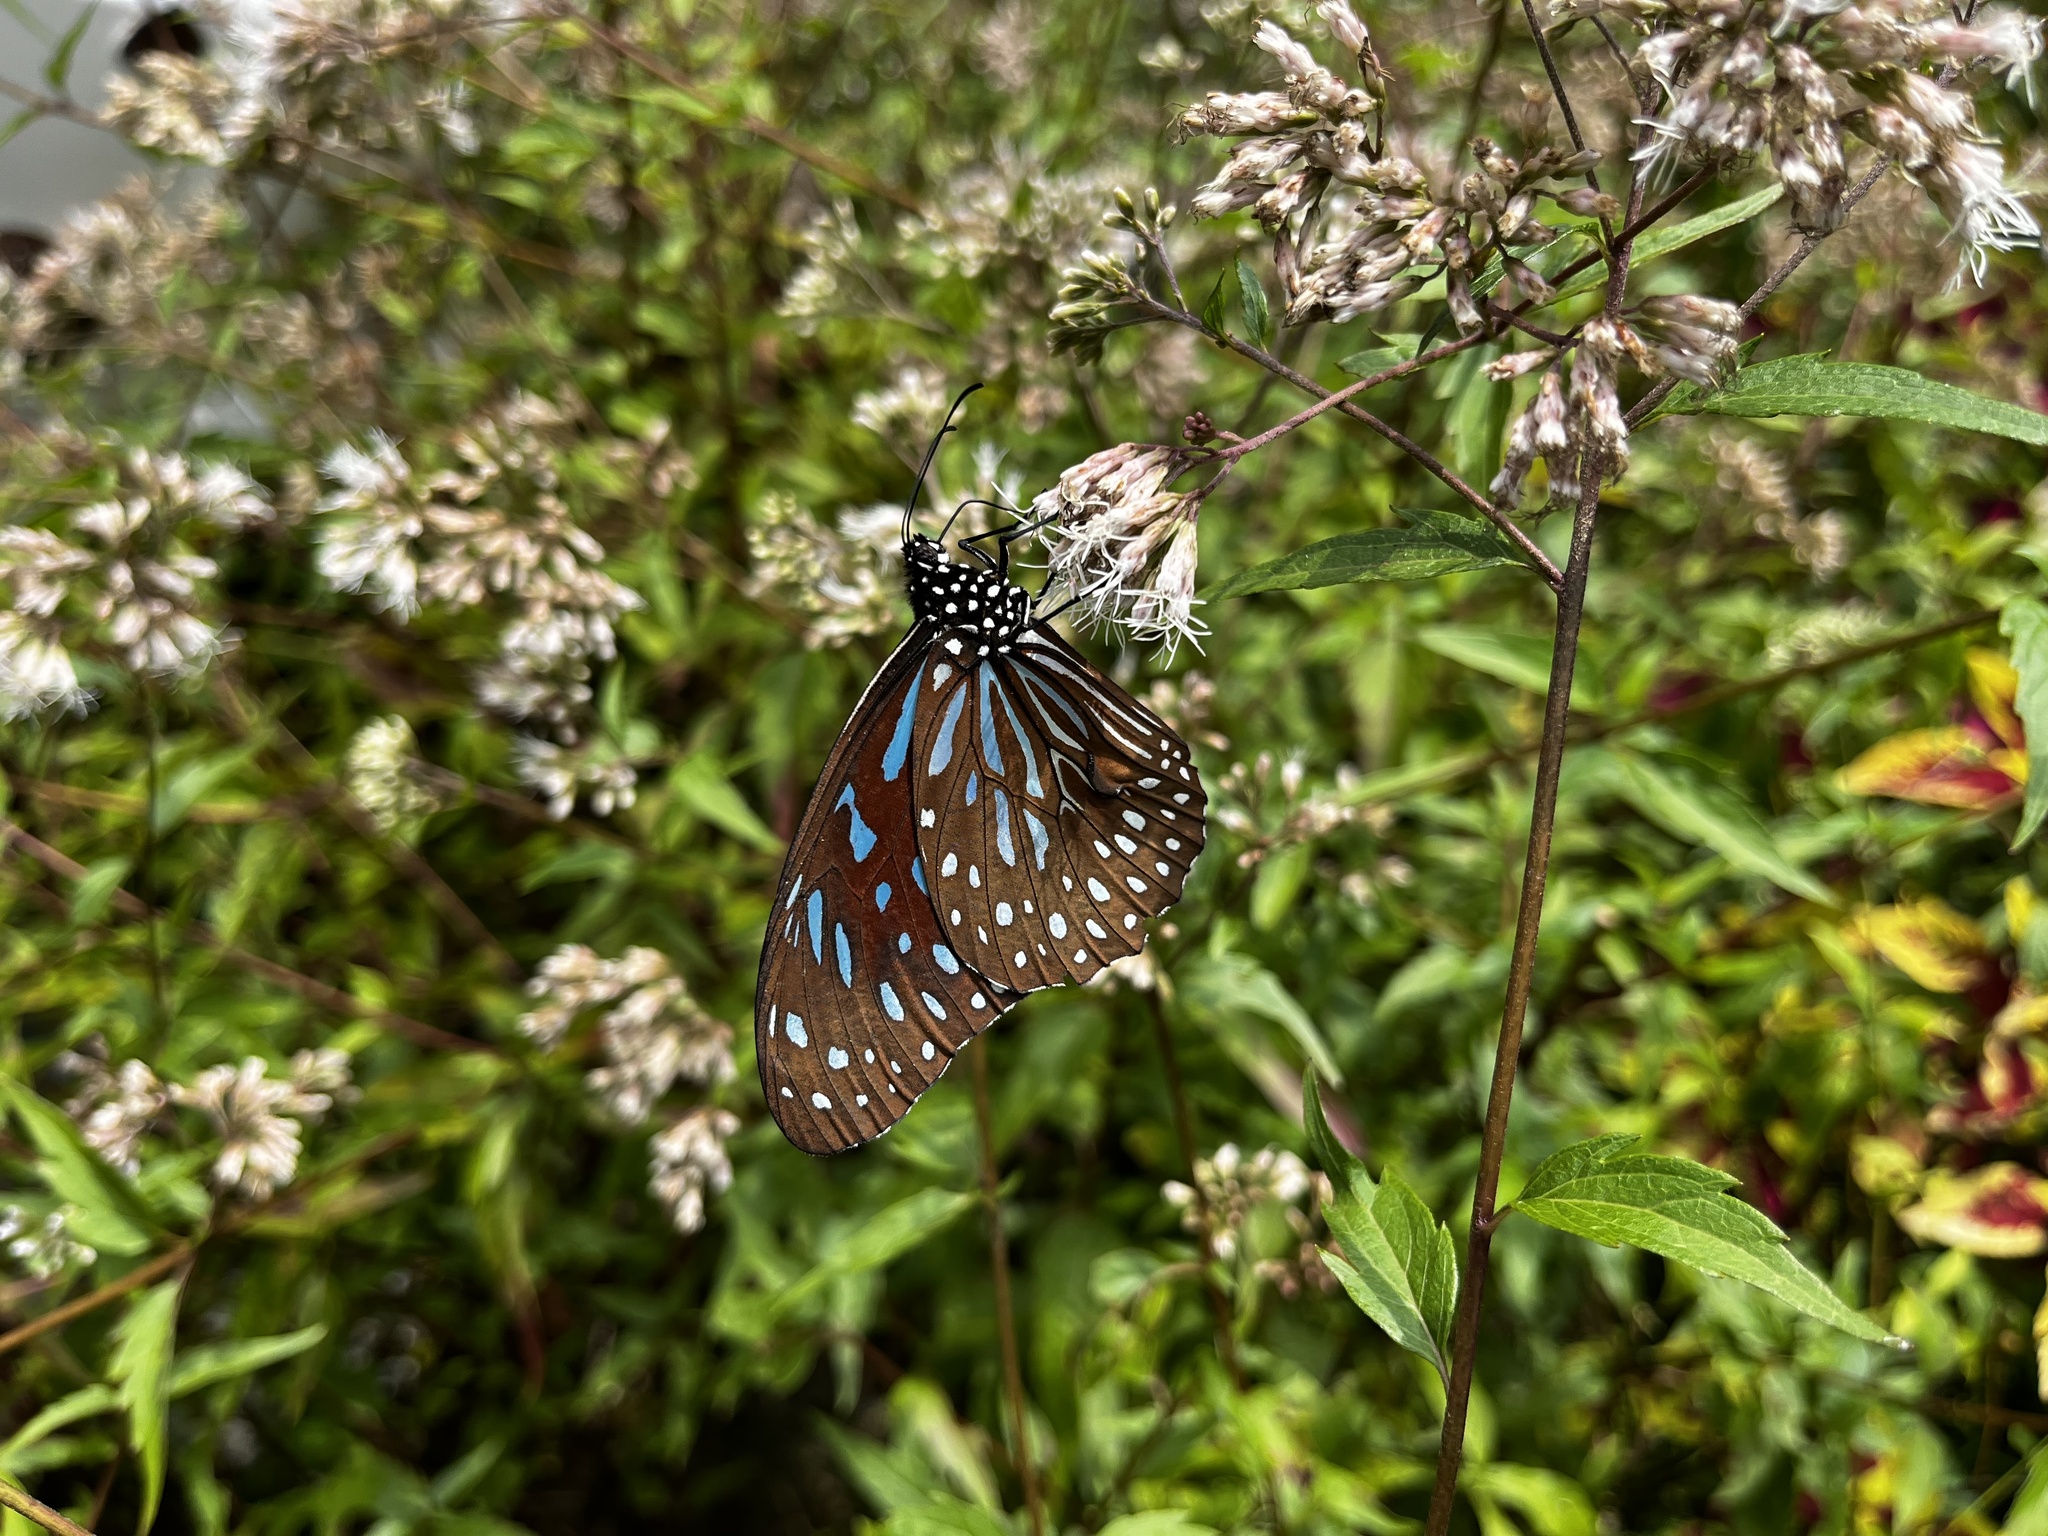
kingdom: Animalia
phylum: Arthropoda
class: Insecta
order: Lepidoptera
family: Nymphalidae
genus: Tirumala
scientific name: Tirumala septentrionis
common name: Dark blue tiger butterfly
